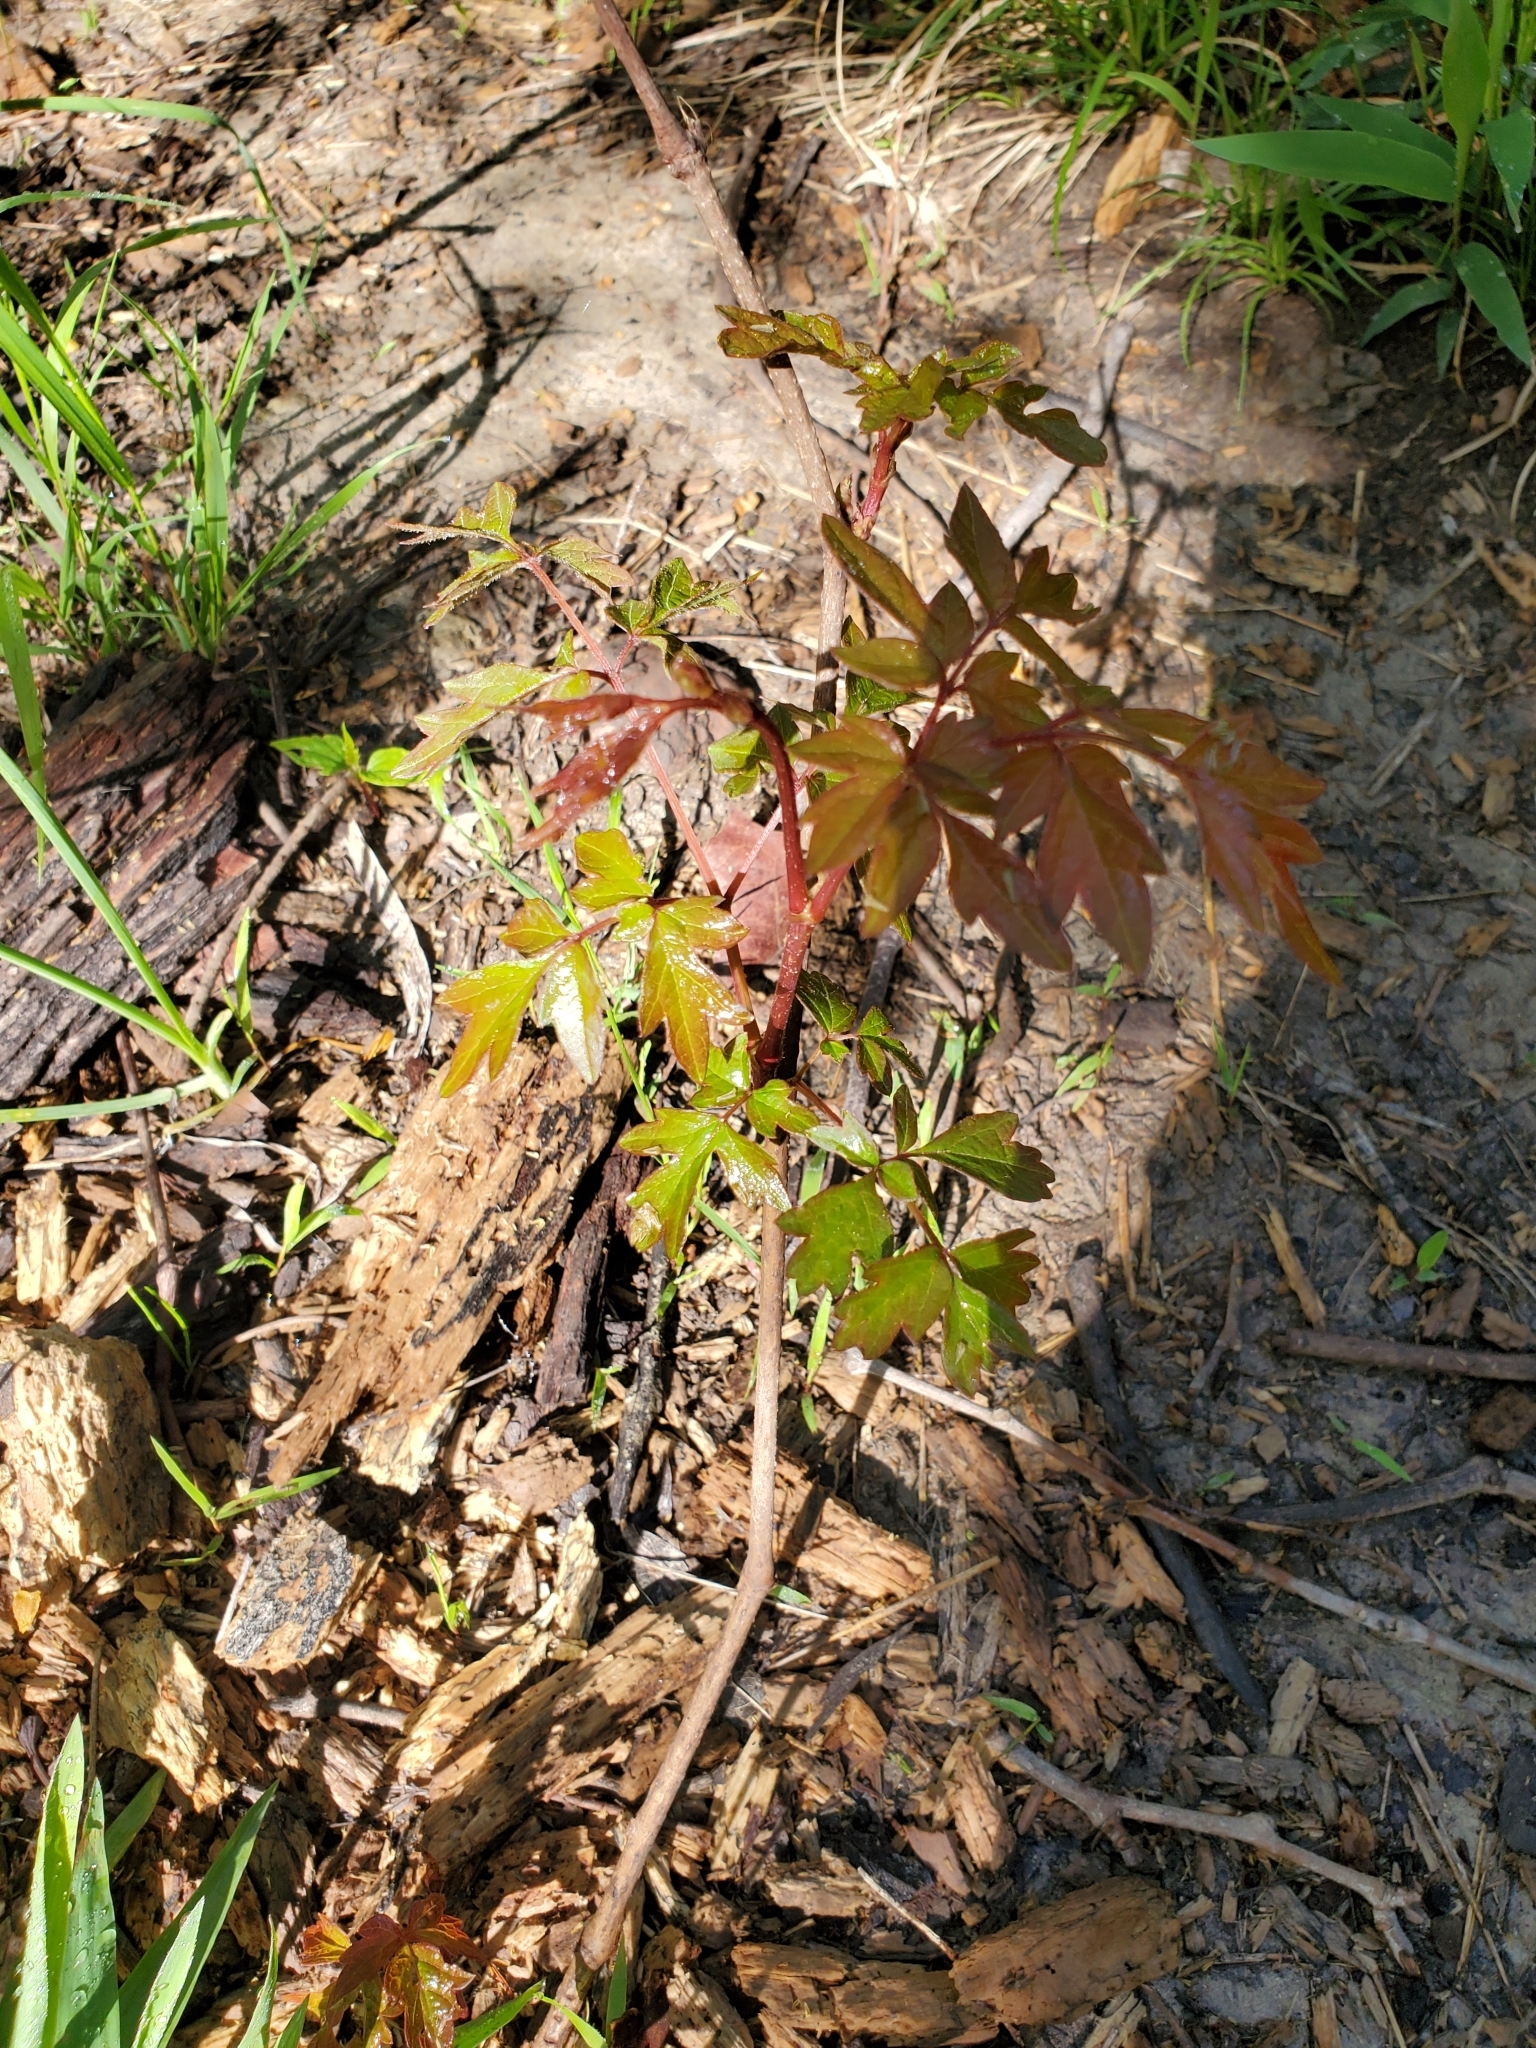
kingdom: Plantae
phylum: Tracheophyta
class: Magnoliopsida
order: Vitales
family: Vitaceae
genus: Nekemias
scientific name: Nekemias arborea
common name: Peppervine
